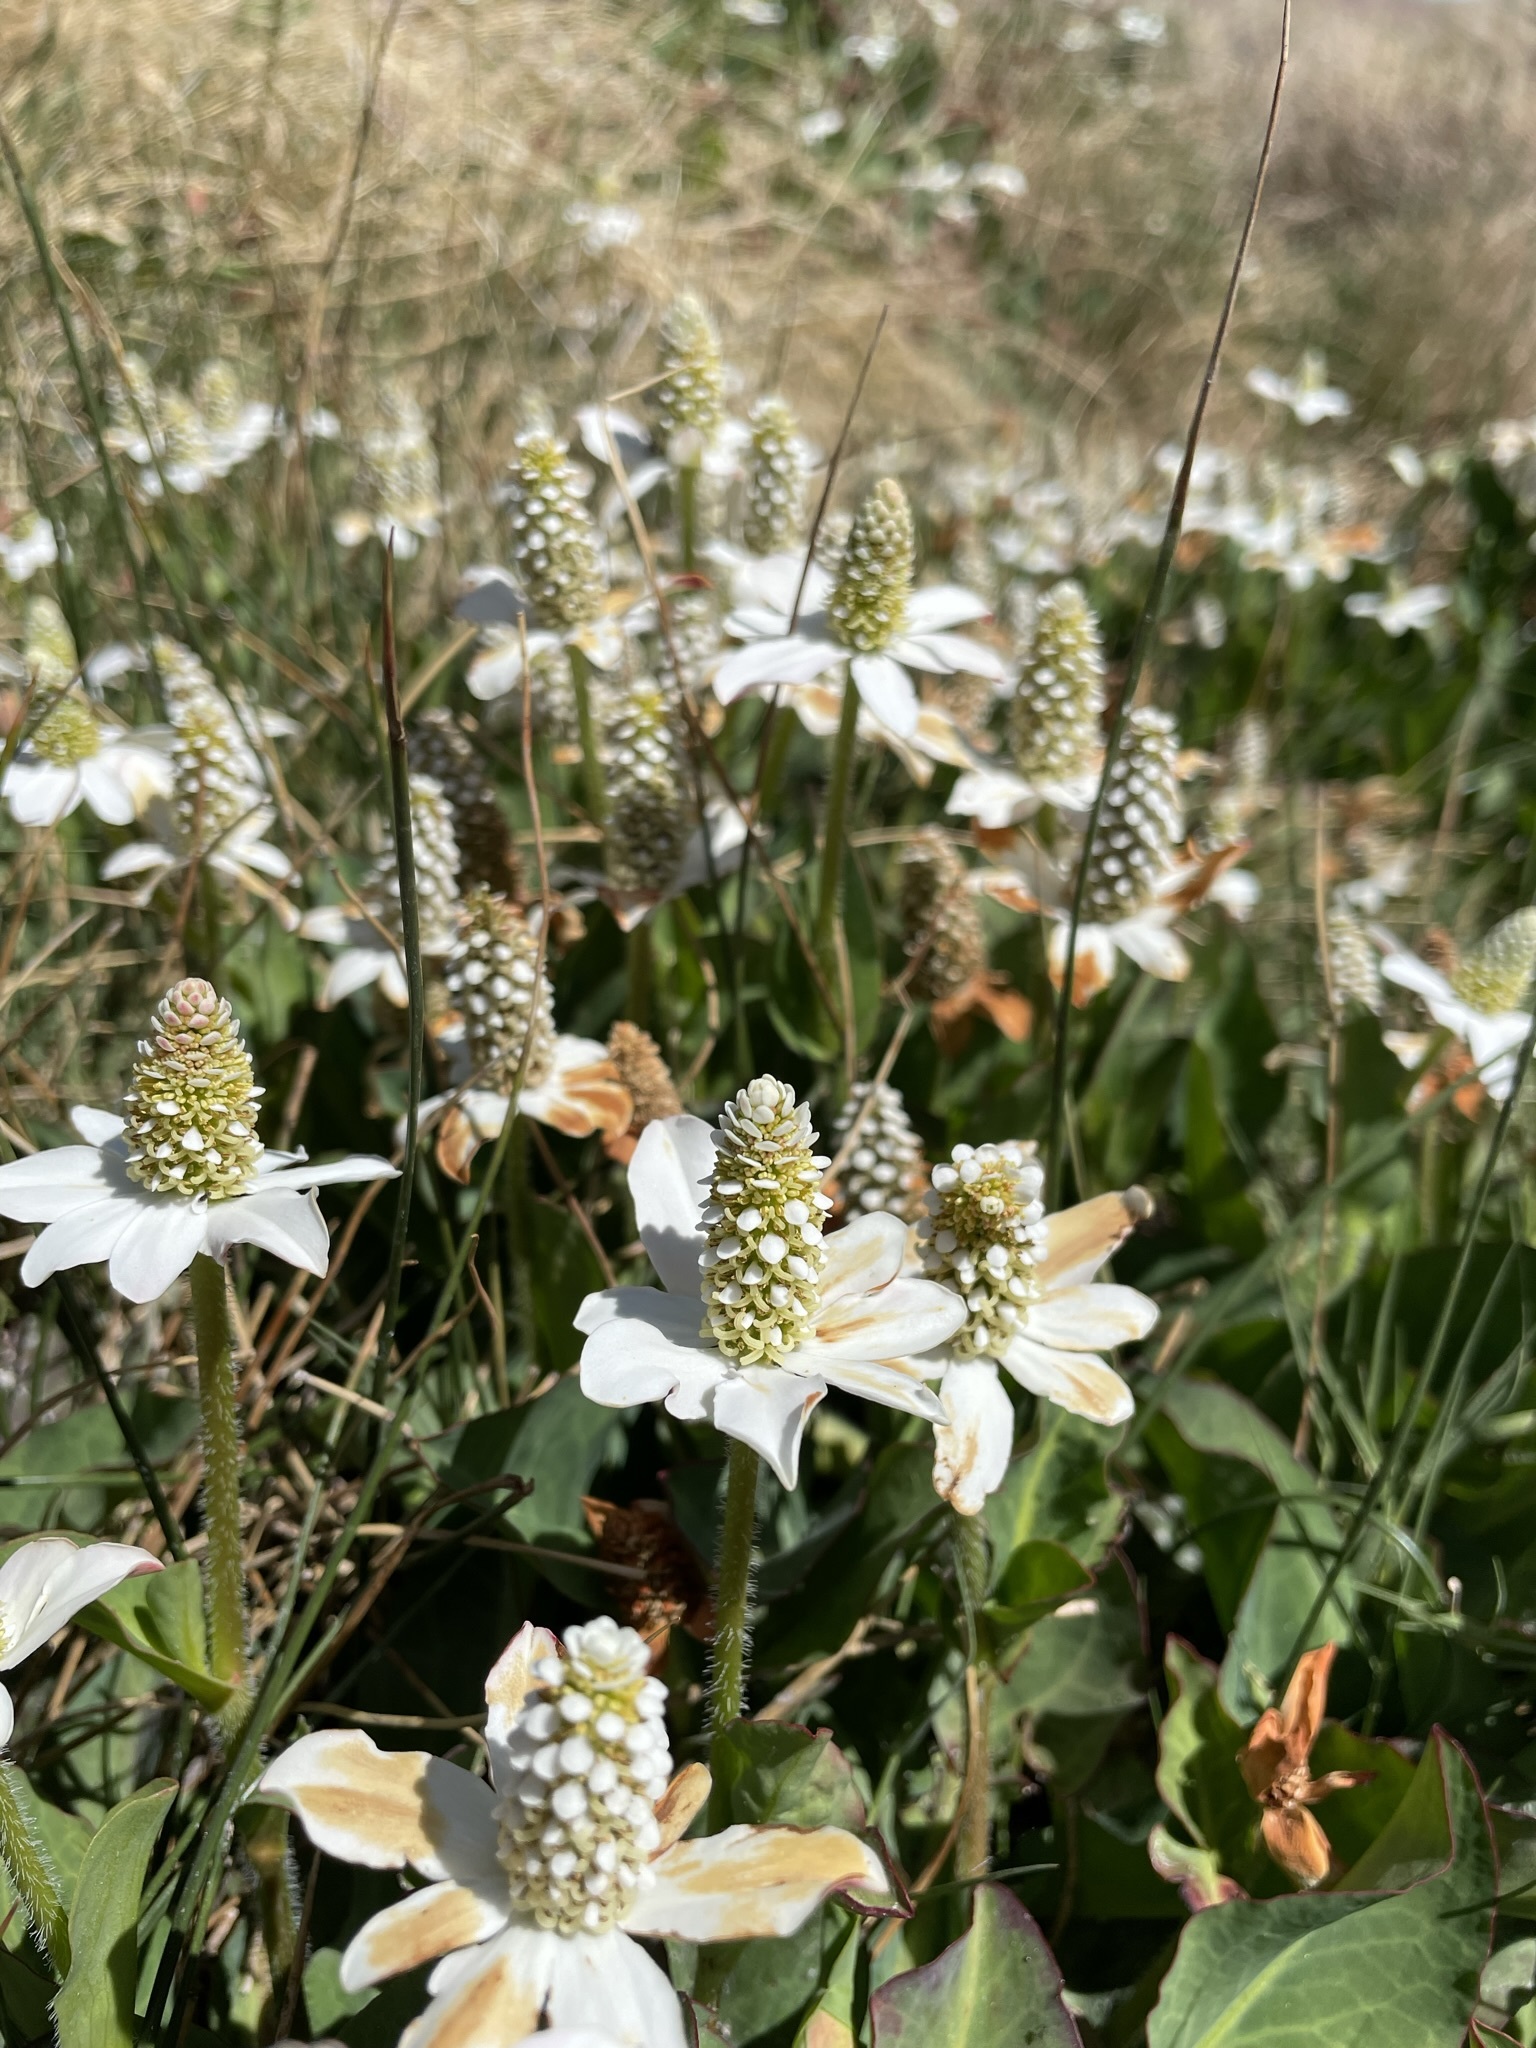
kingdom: Plantae
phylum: Tracheophyta
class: Magnoliopsida
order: Piperales
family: Saururaceae
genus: Anemopsis
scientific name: Anemopsis californica
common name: Apache-beads
